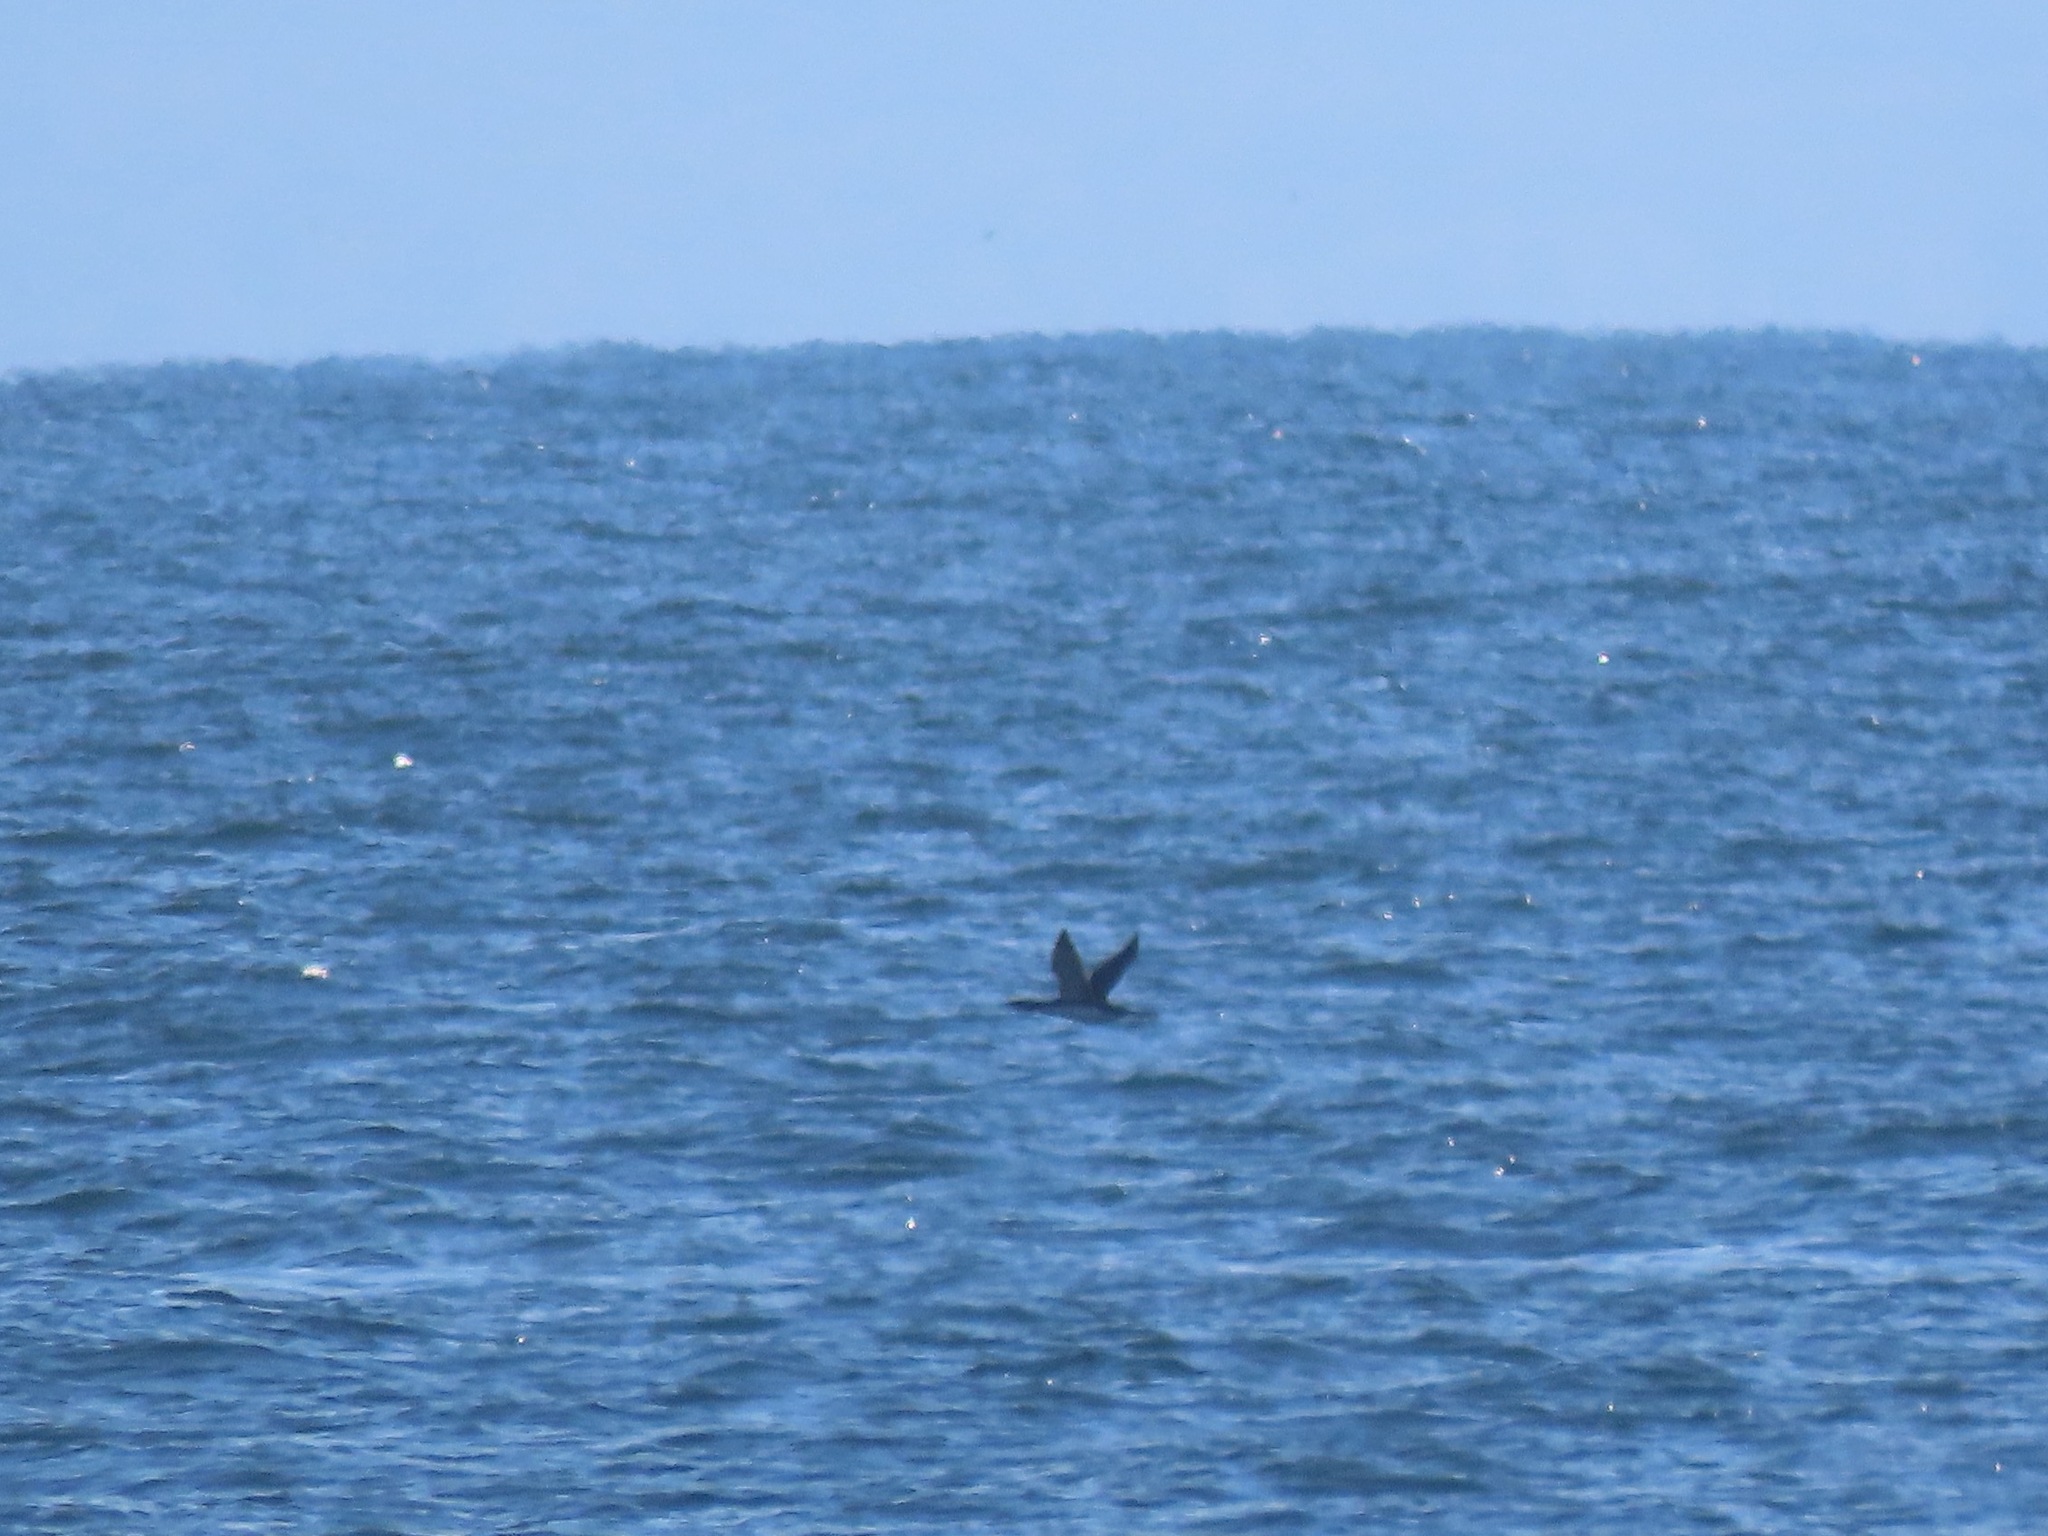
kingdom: Animalia
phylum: Chordata
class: Aves
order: Gaviiformes
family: Gaviidae
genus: Gavia
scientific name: Gavia pacifica
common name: Pacific loon
